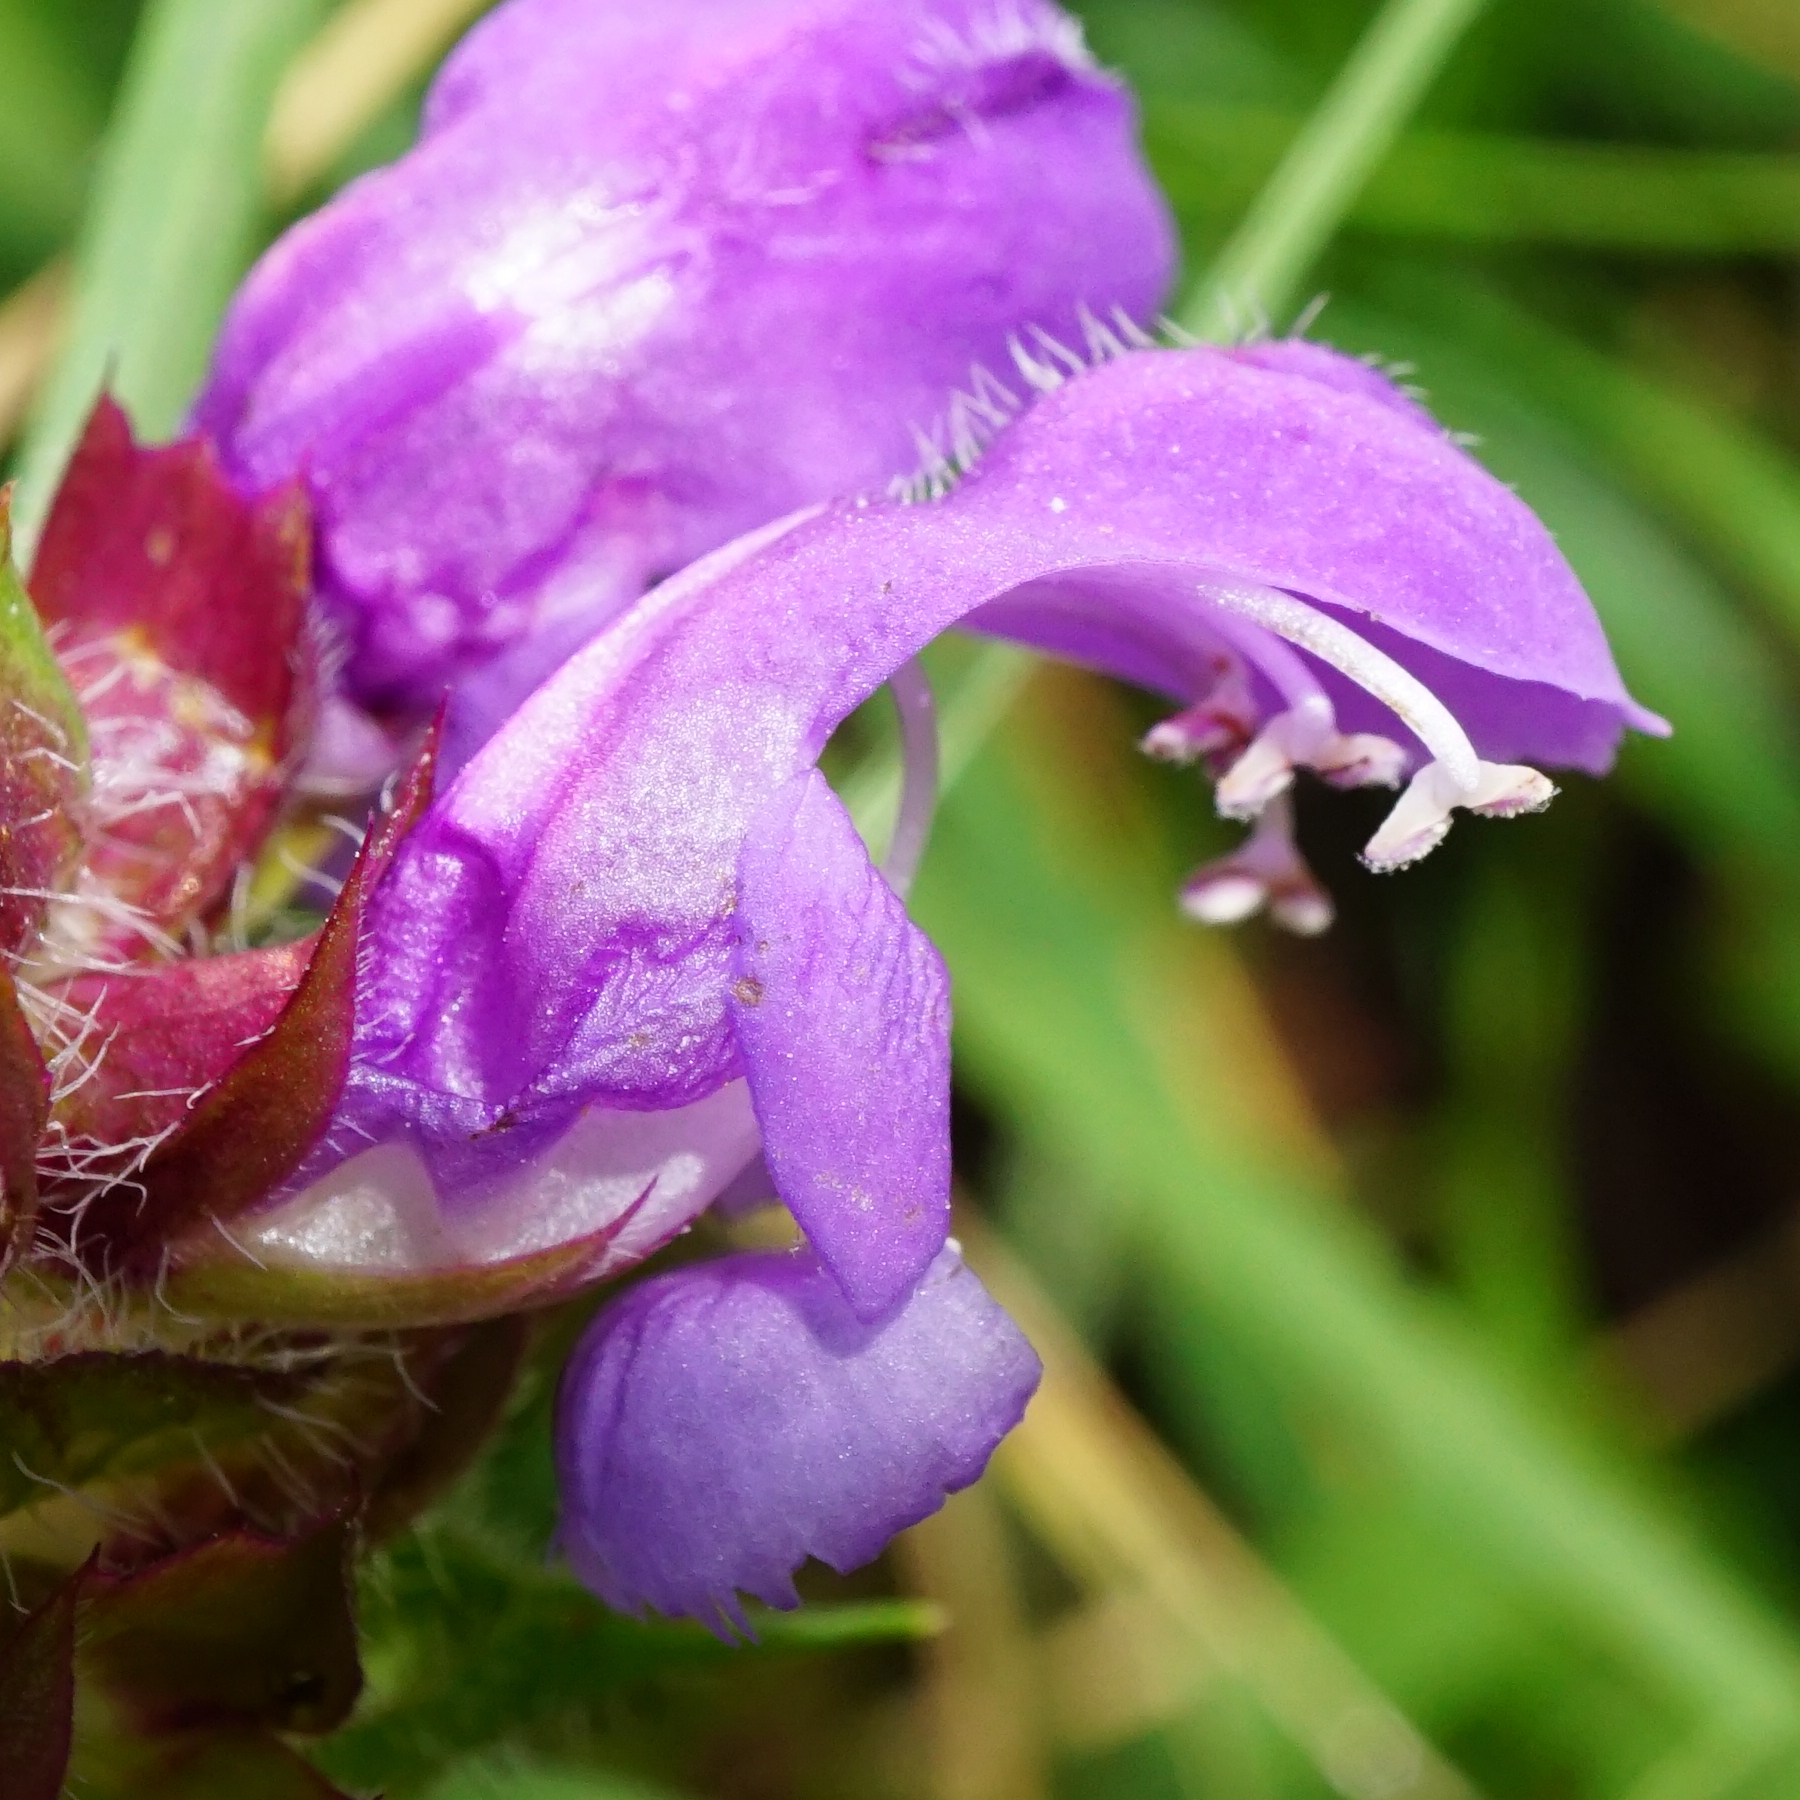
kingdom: Plantae
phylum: Tracheophyta
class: Magnoliopsida
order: Lamiales
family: Lamiaceae
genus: Prunella
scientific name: Prunella grandiflora
